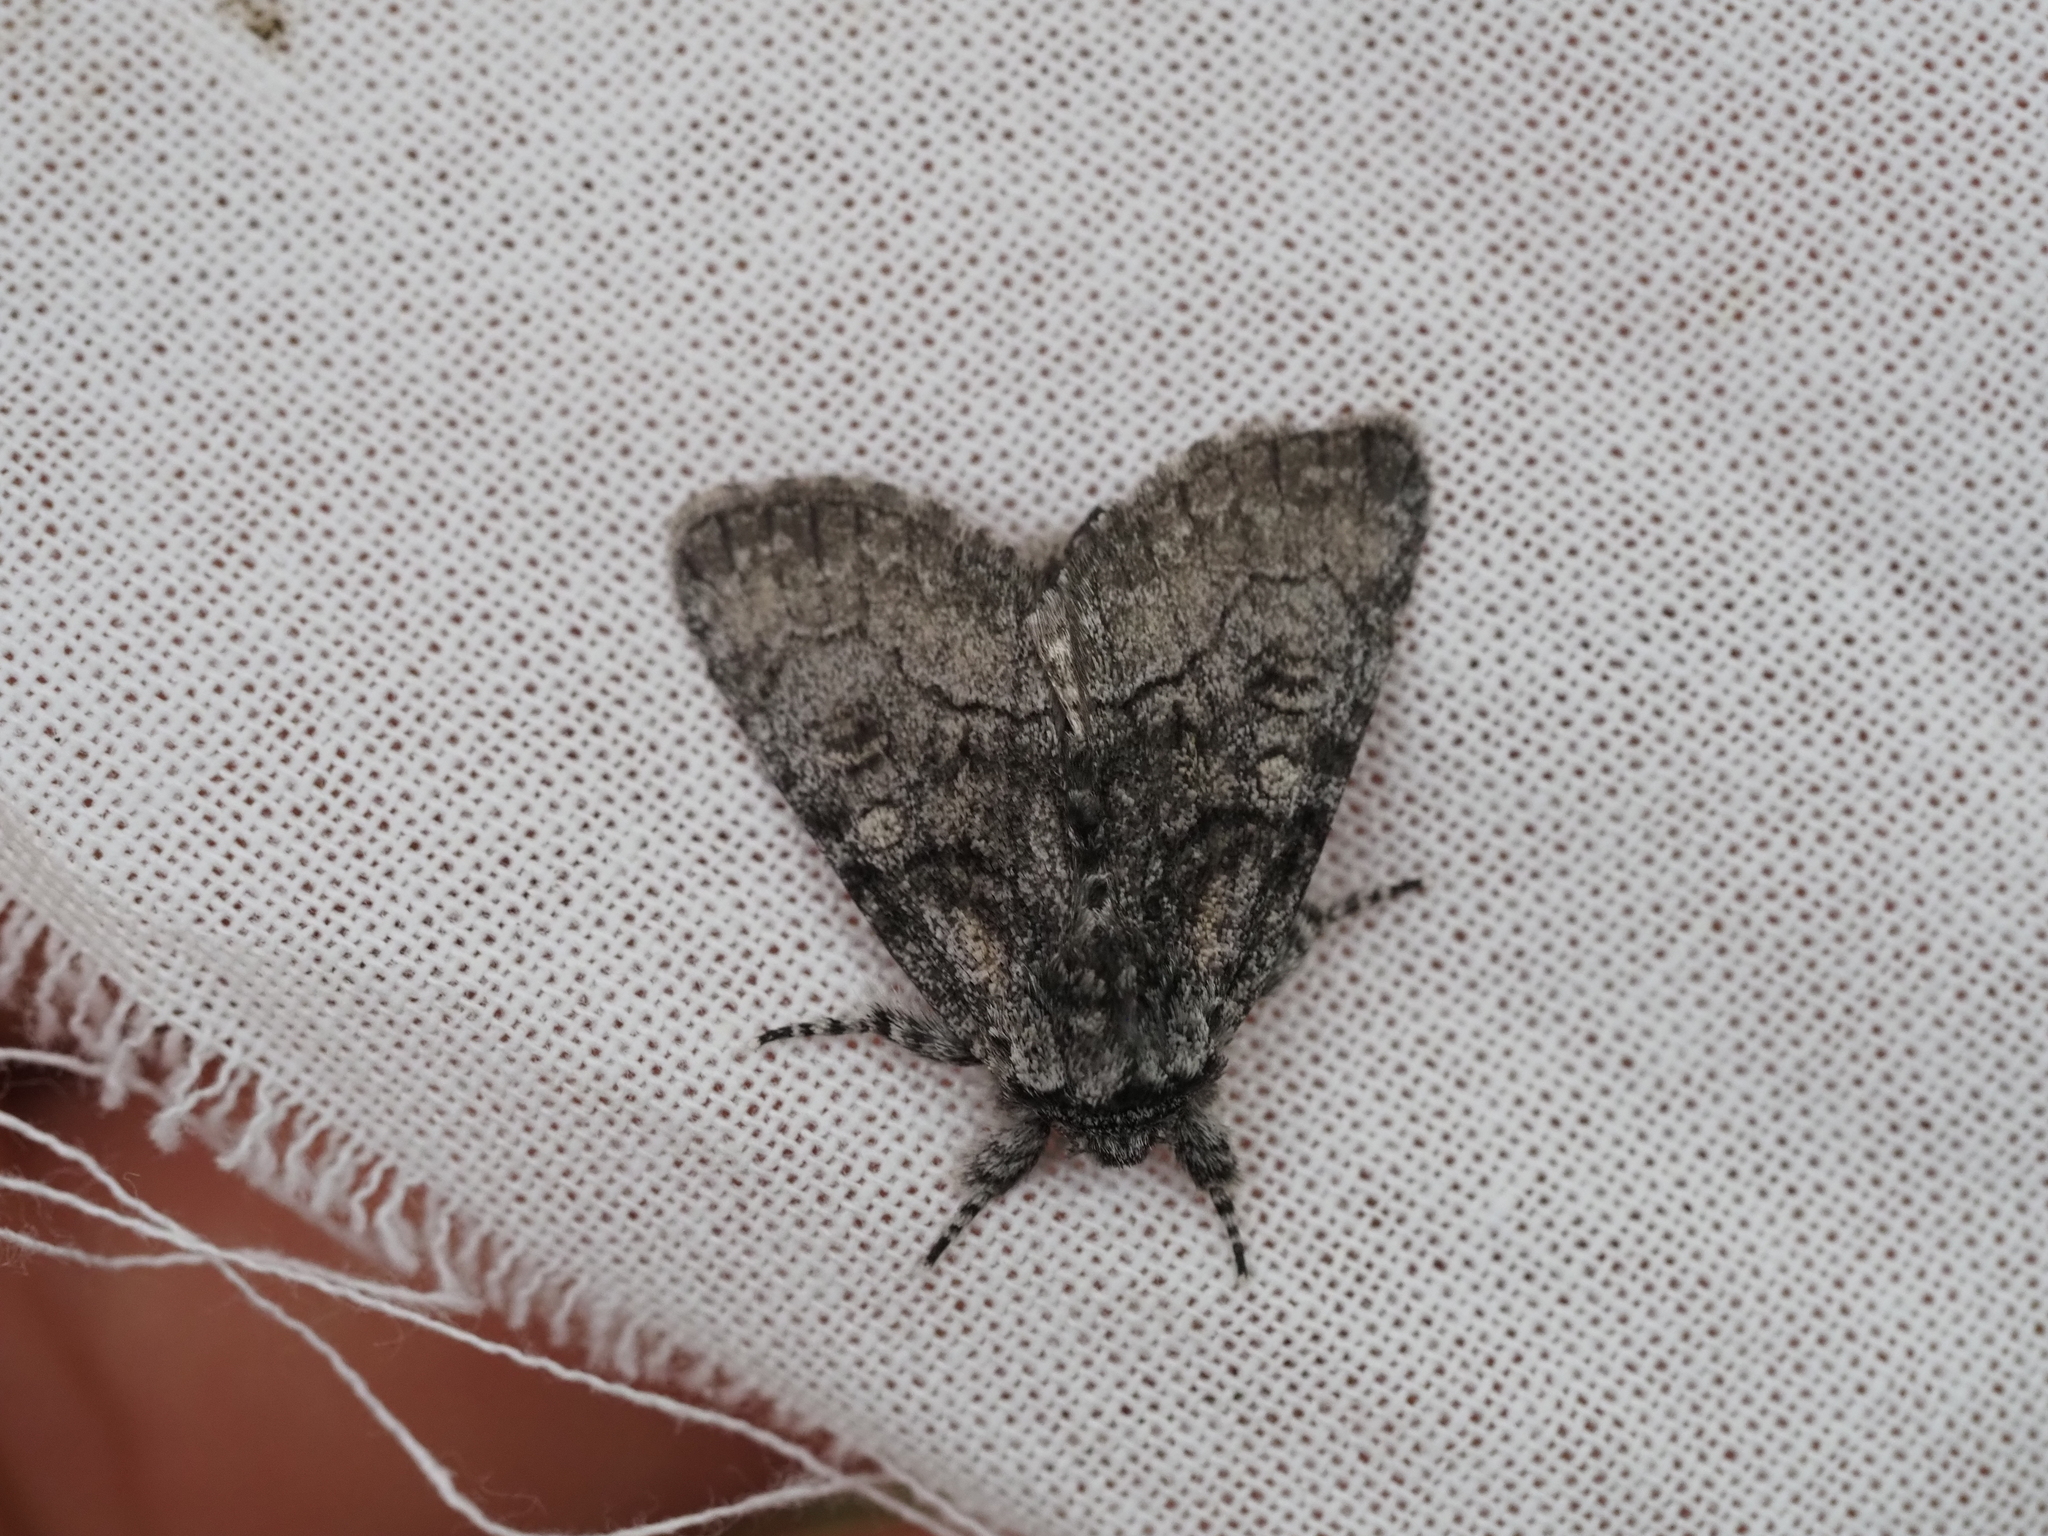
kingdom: Animalia
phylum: Arthropoda
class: Insecta
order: Lepidoptera
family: Noctuidae
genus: Raphia
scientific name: Raphia frater
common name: Brother
